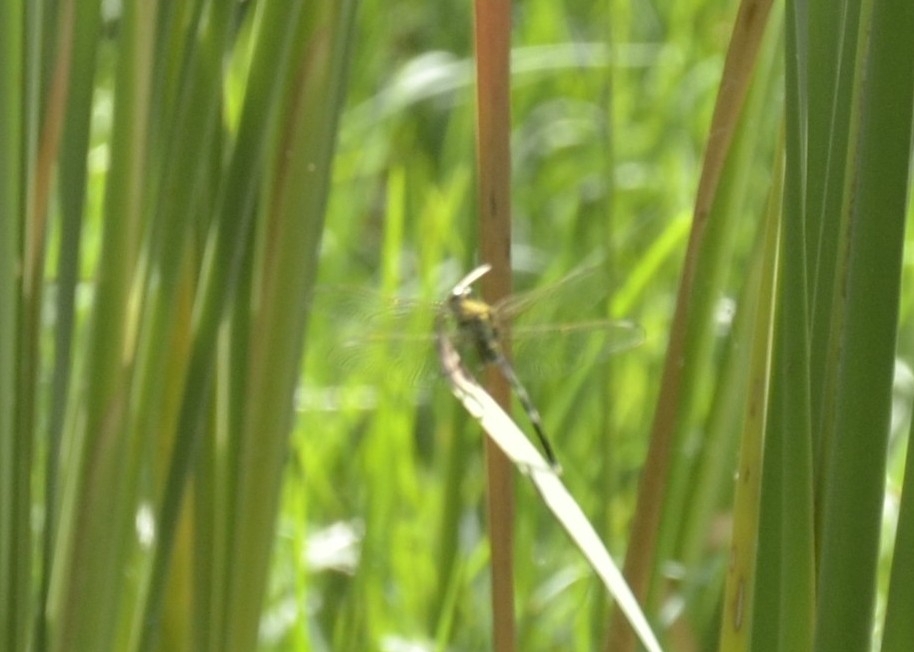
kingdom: Animalia
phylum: Arthropoda
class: Insecta
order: Odonata
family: Libellulidae
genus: Orthetrum
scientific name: Orthetrum sabina
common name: Slender skimmer
